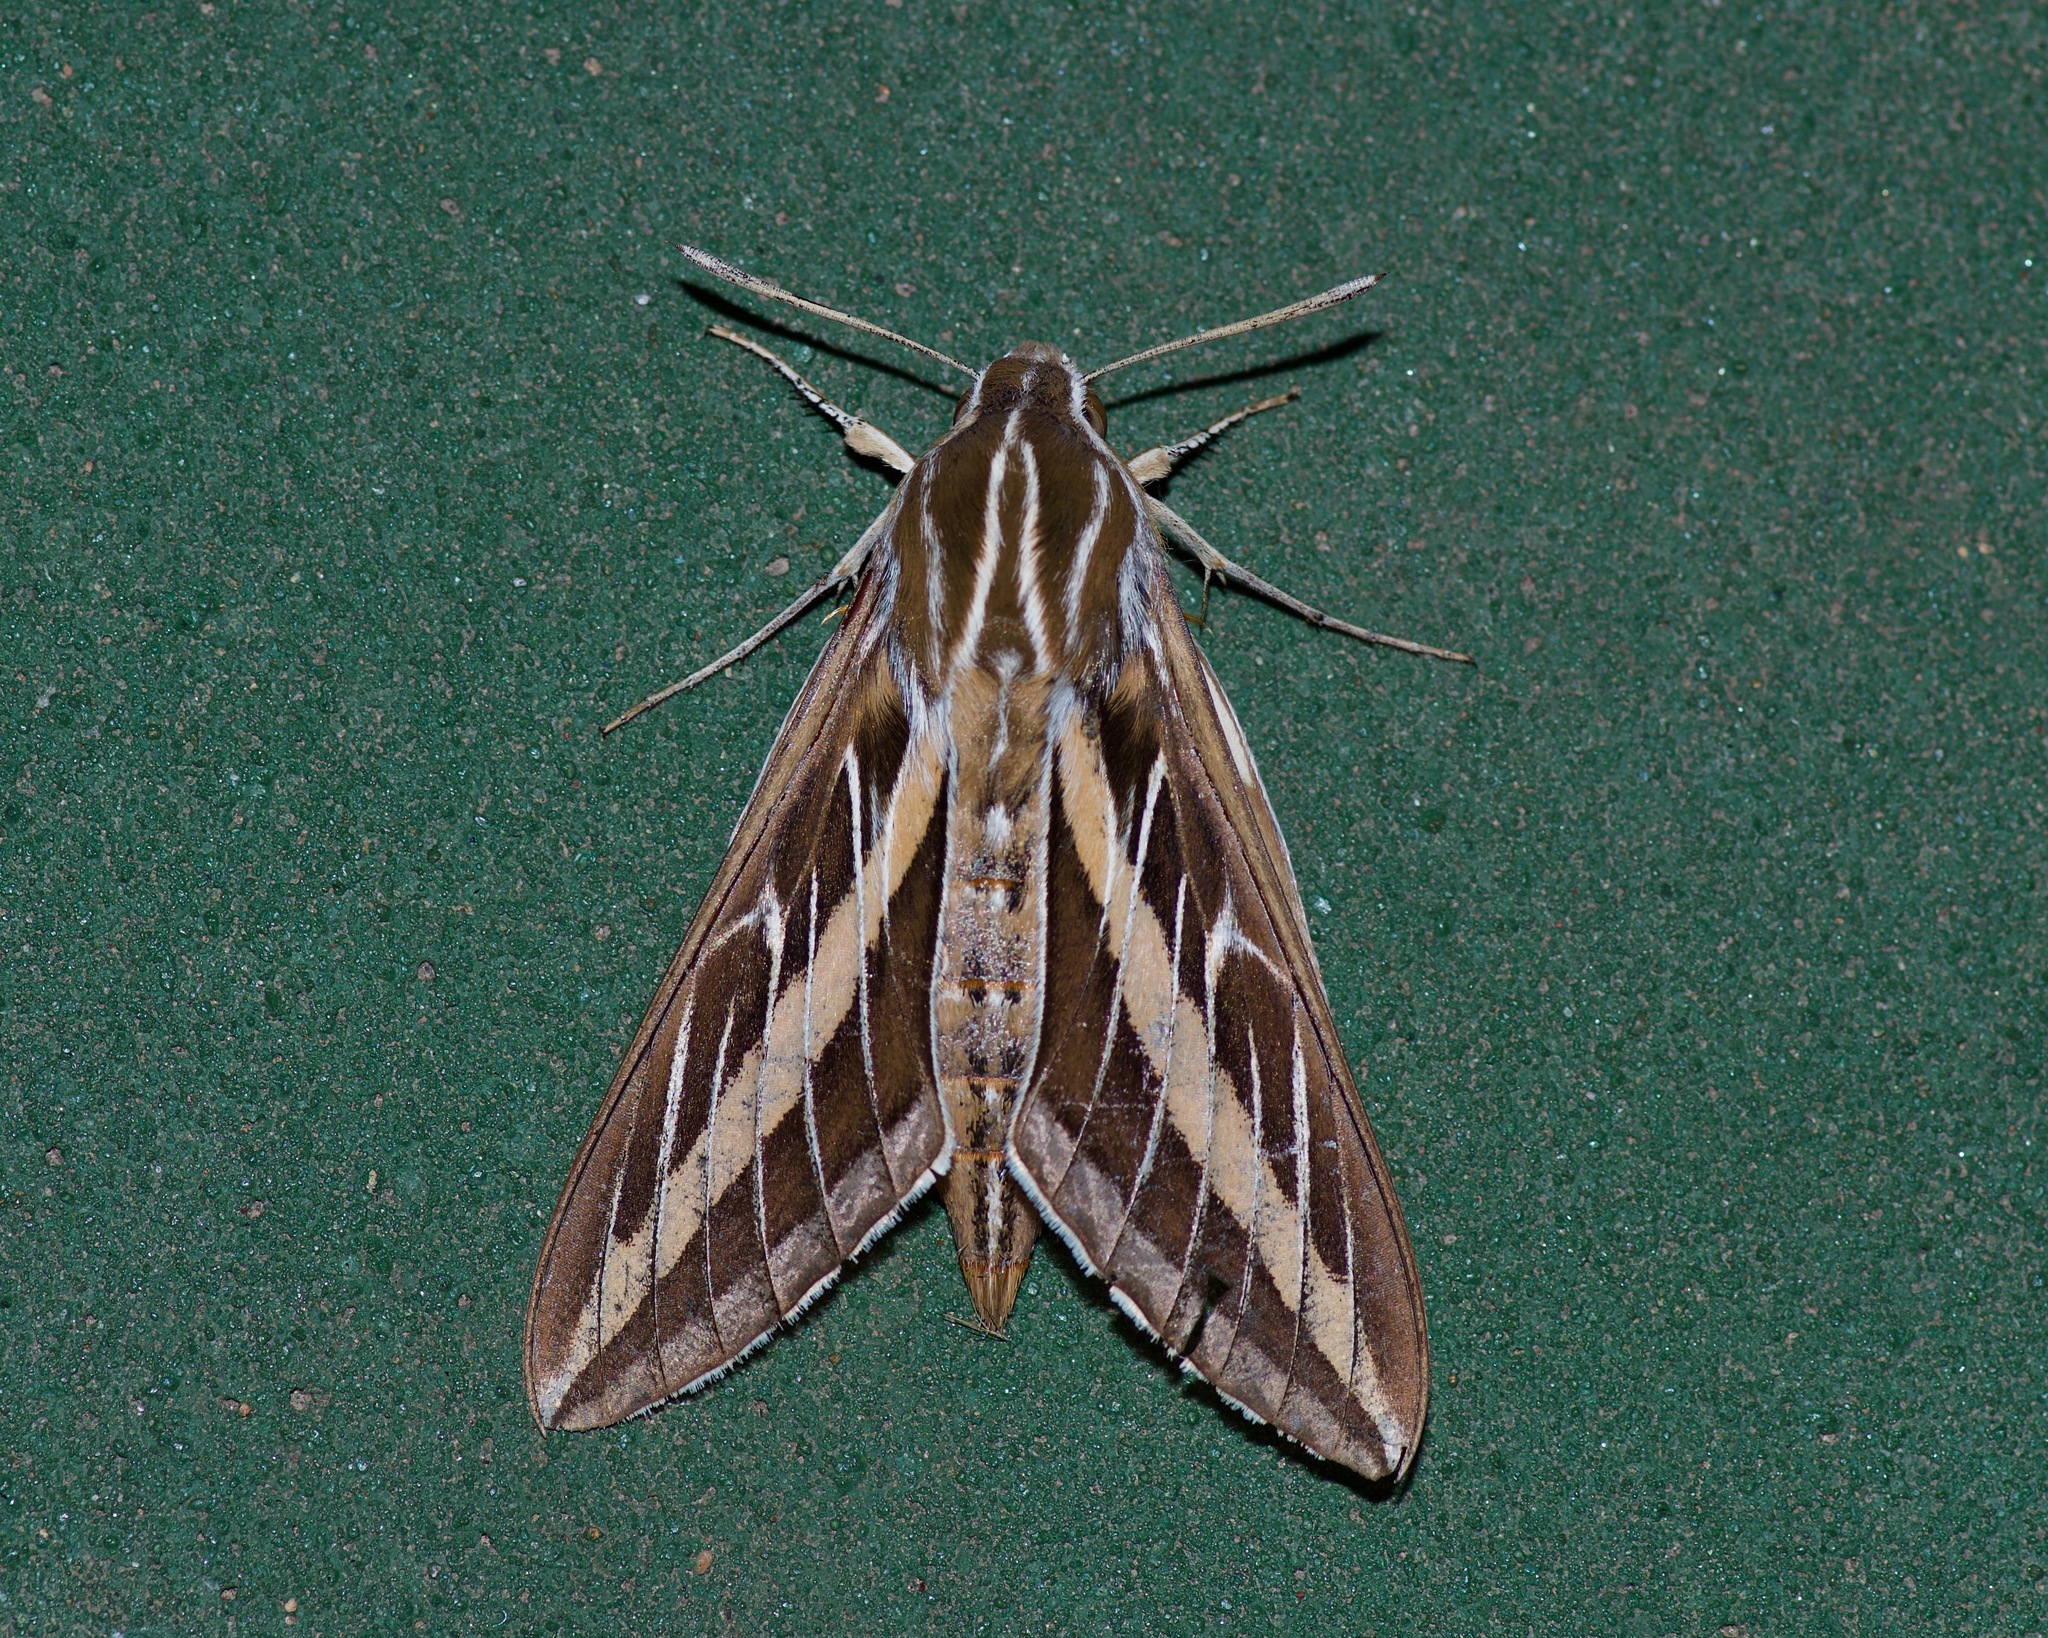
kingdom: Animalia
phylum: Arthropoda
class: Insecta
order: Lepidoptera
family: Sphingidae
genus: Hyles
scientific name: Hyles lineata
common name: White-lined sphinx
